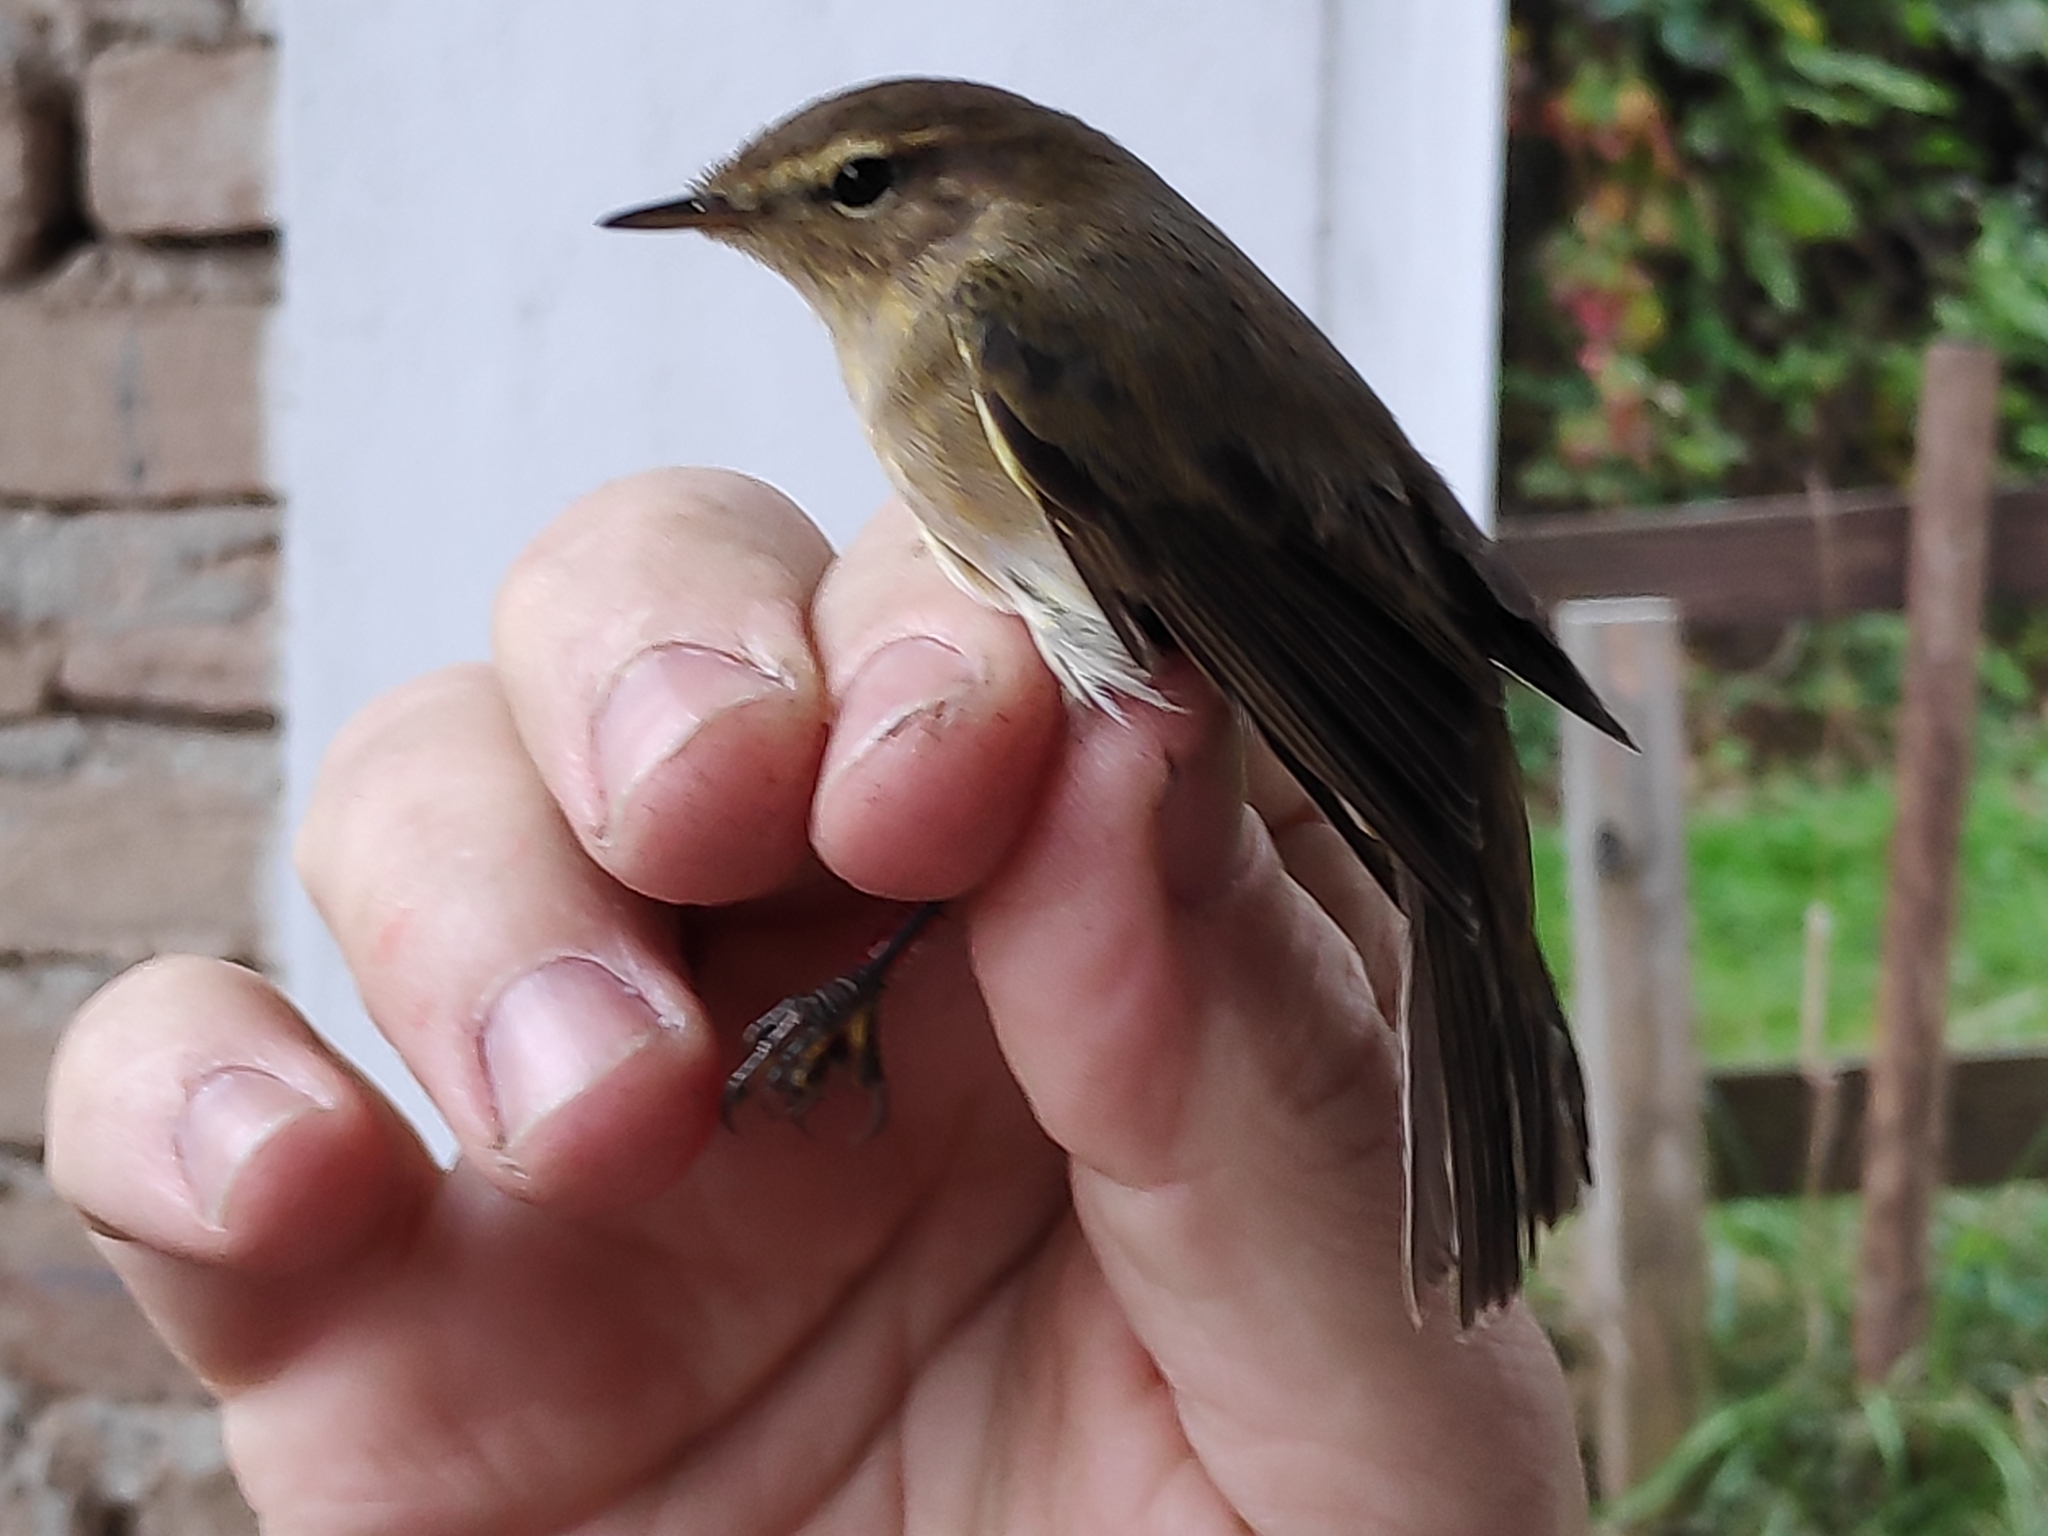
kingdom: Animalia
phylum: Chordata
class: Aves
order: Passeriformes
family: Phylloscopidae
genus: Phylloscopus
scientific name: Phylloscopus collybita
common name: Common chiffchaff
